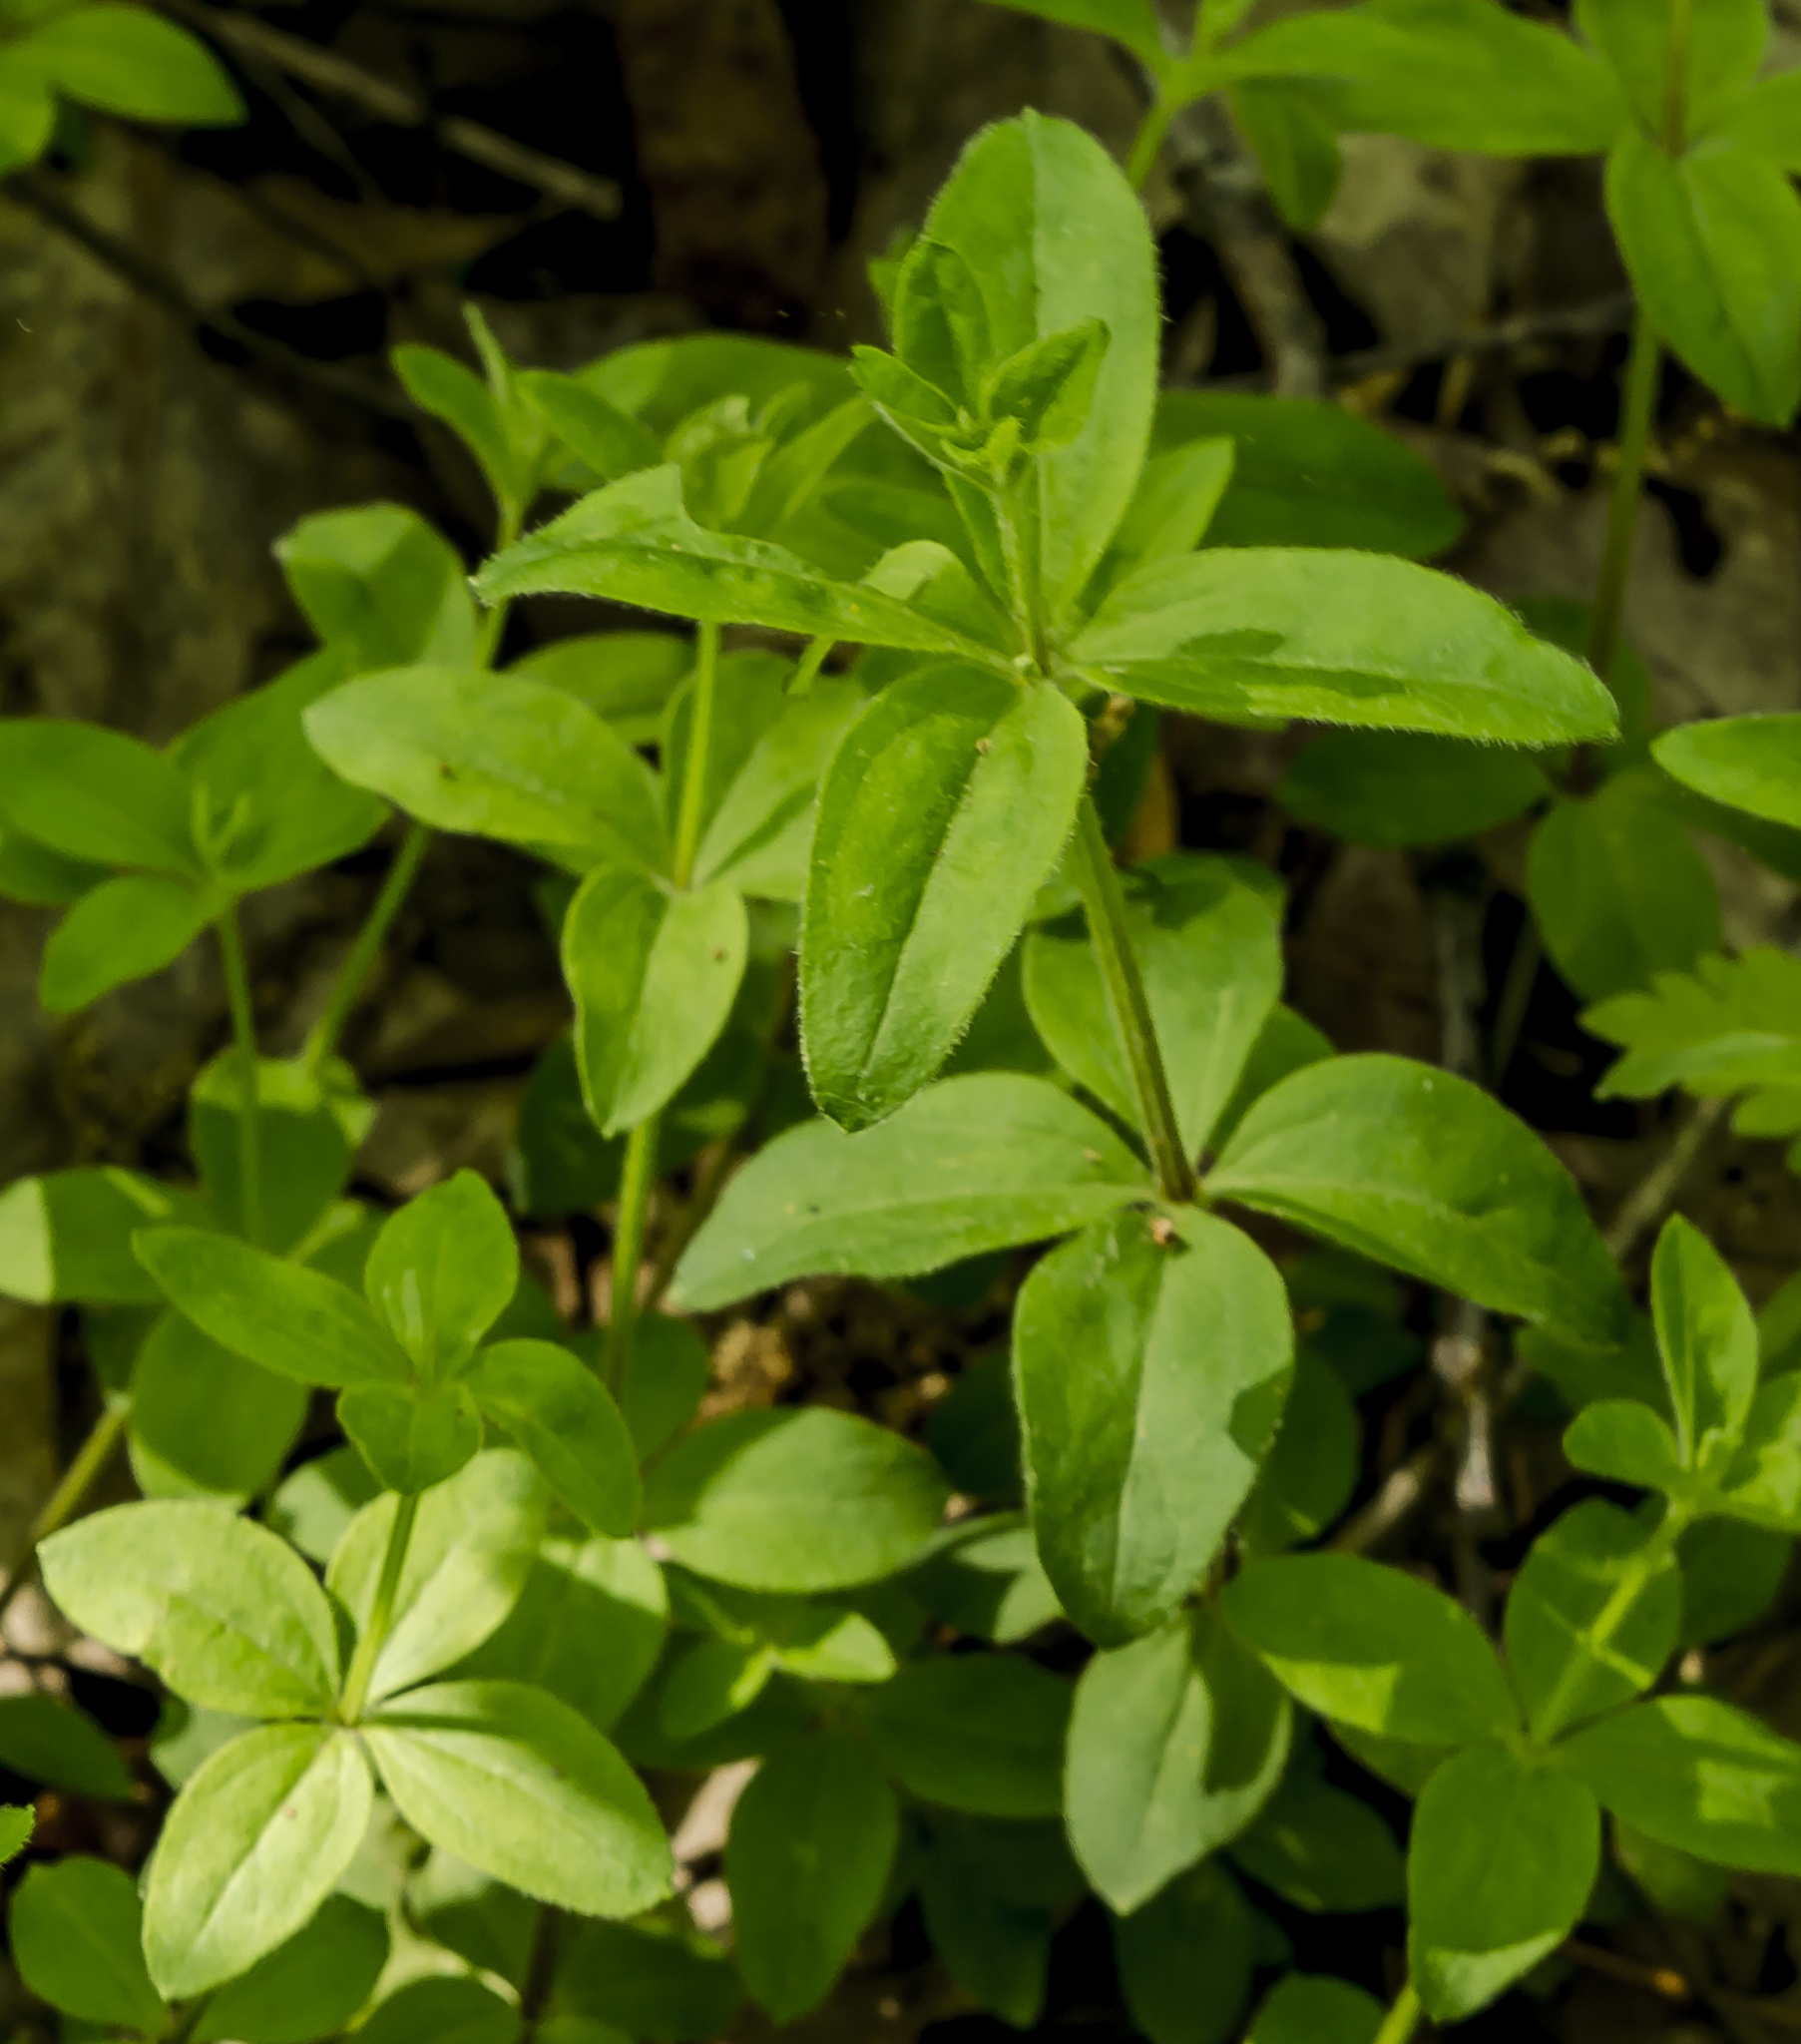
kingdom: Plantae
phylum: Tracheophyta
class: Magnoliopsida
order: Gentianales
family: Rubiaceae
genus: Galium
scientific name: Galium circaezans
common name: Forest bedstraw
